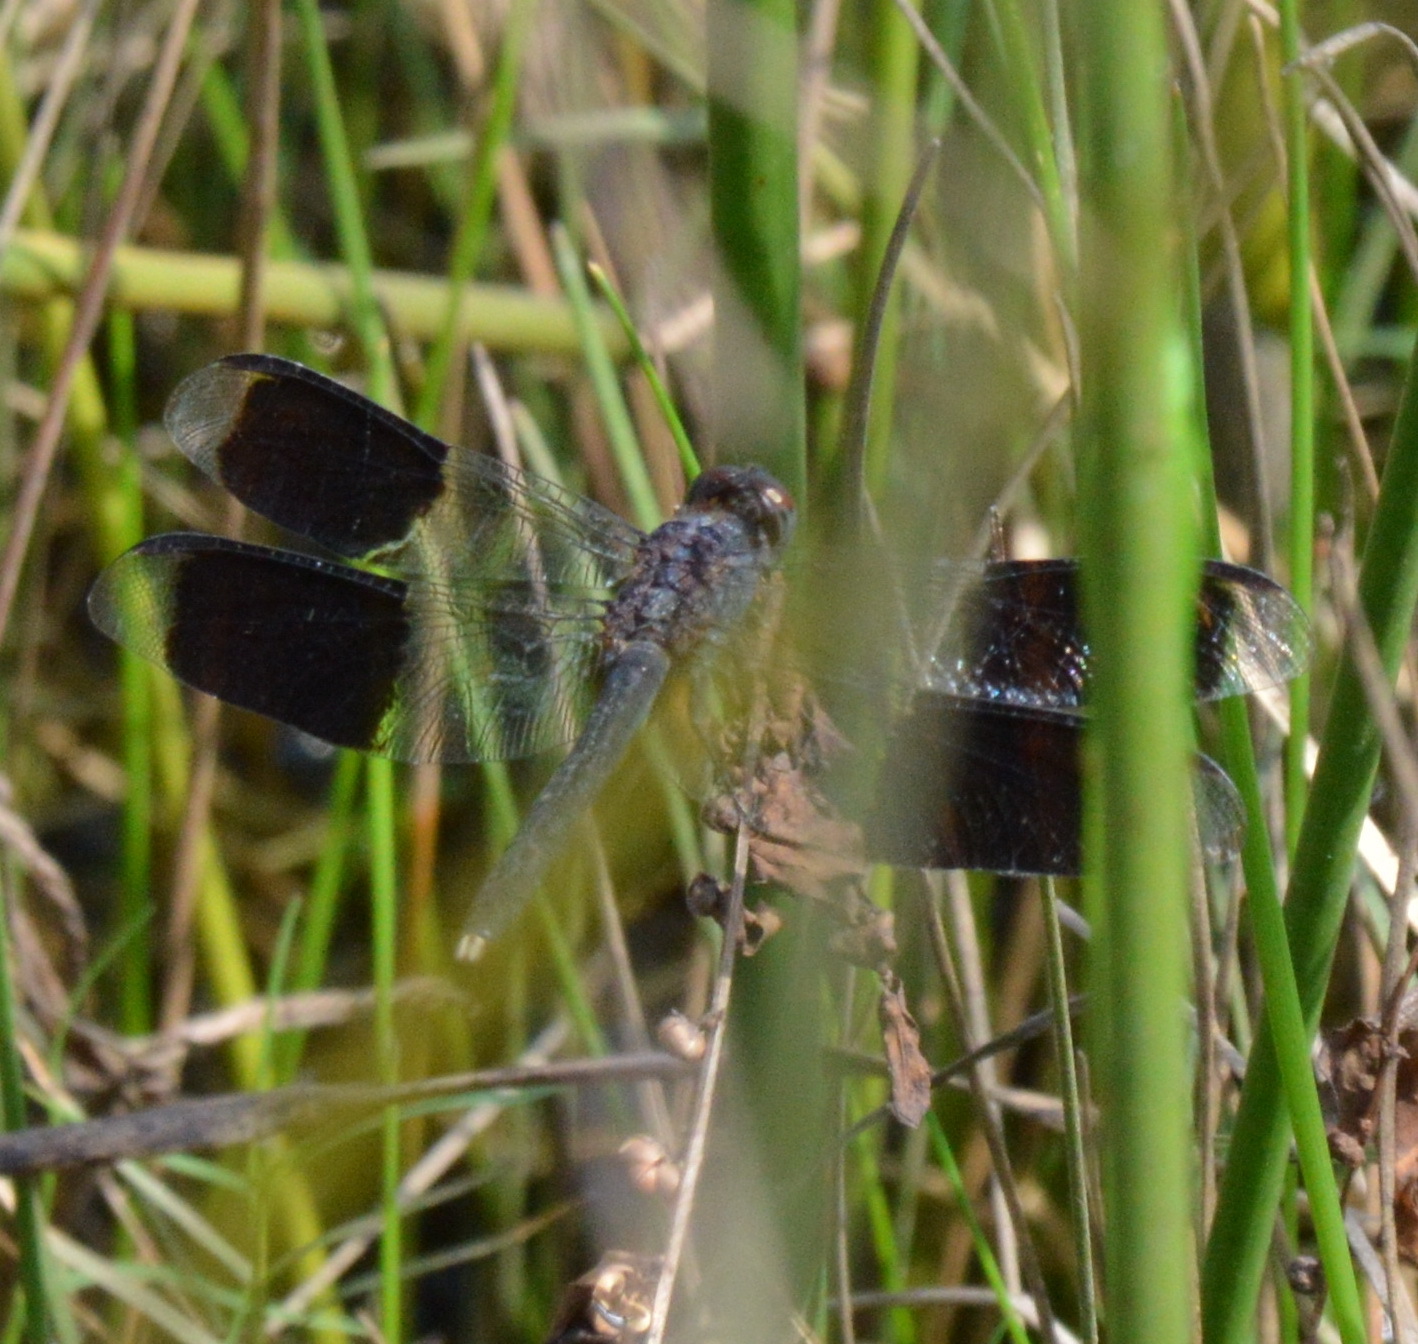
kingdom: Animalia
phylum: Arthropoda
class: Insecta
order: Odonata
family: Libellulidae
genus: Erythrodiplax
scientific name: Erythrodiplax umbrata
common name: Band-winged dragonlet
